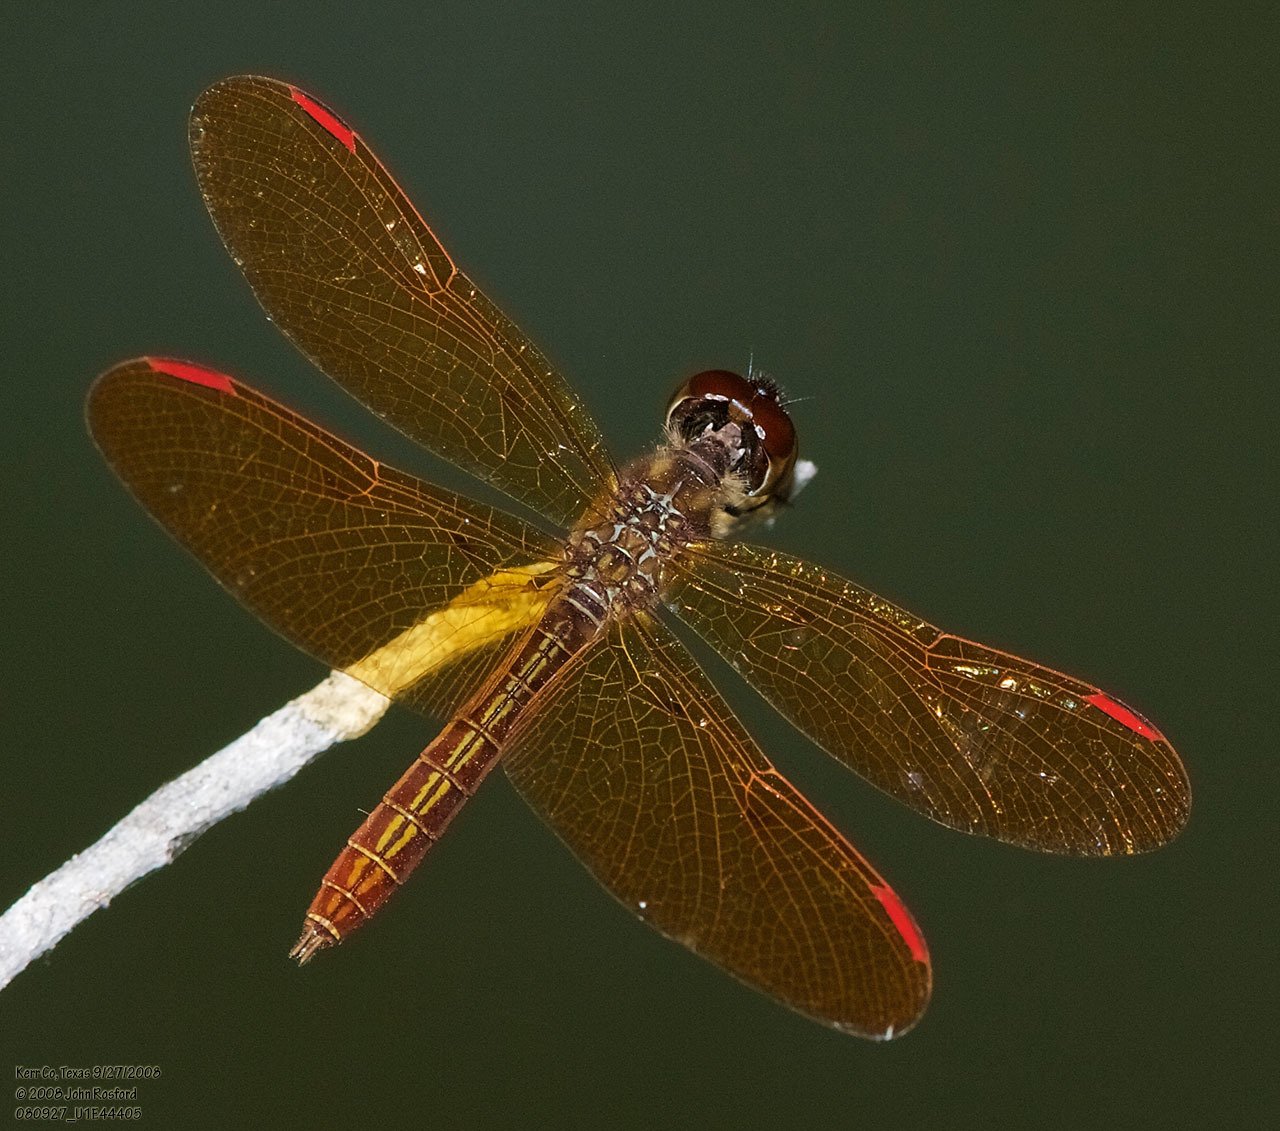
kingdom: Animalia
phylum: Arthropoda
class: Insecta
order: Odonata
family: Libellulidae
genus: Perithemis
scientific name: Perithemis domitia
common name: Slough amberwing
